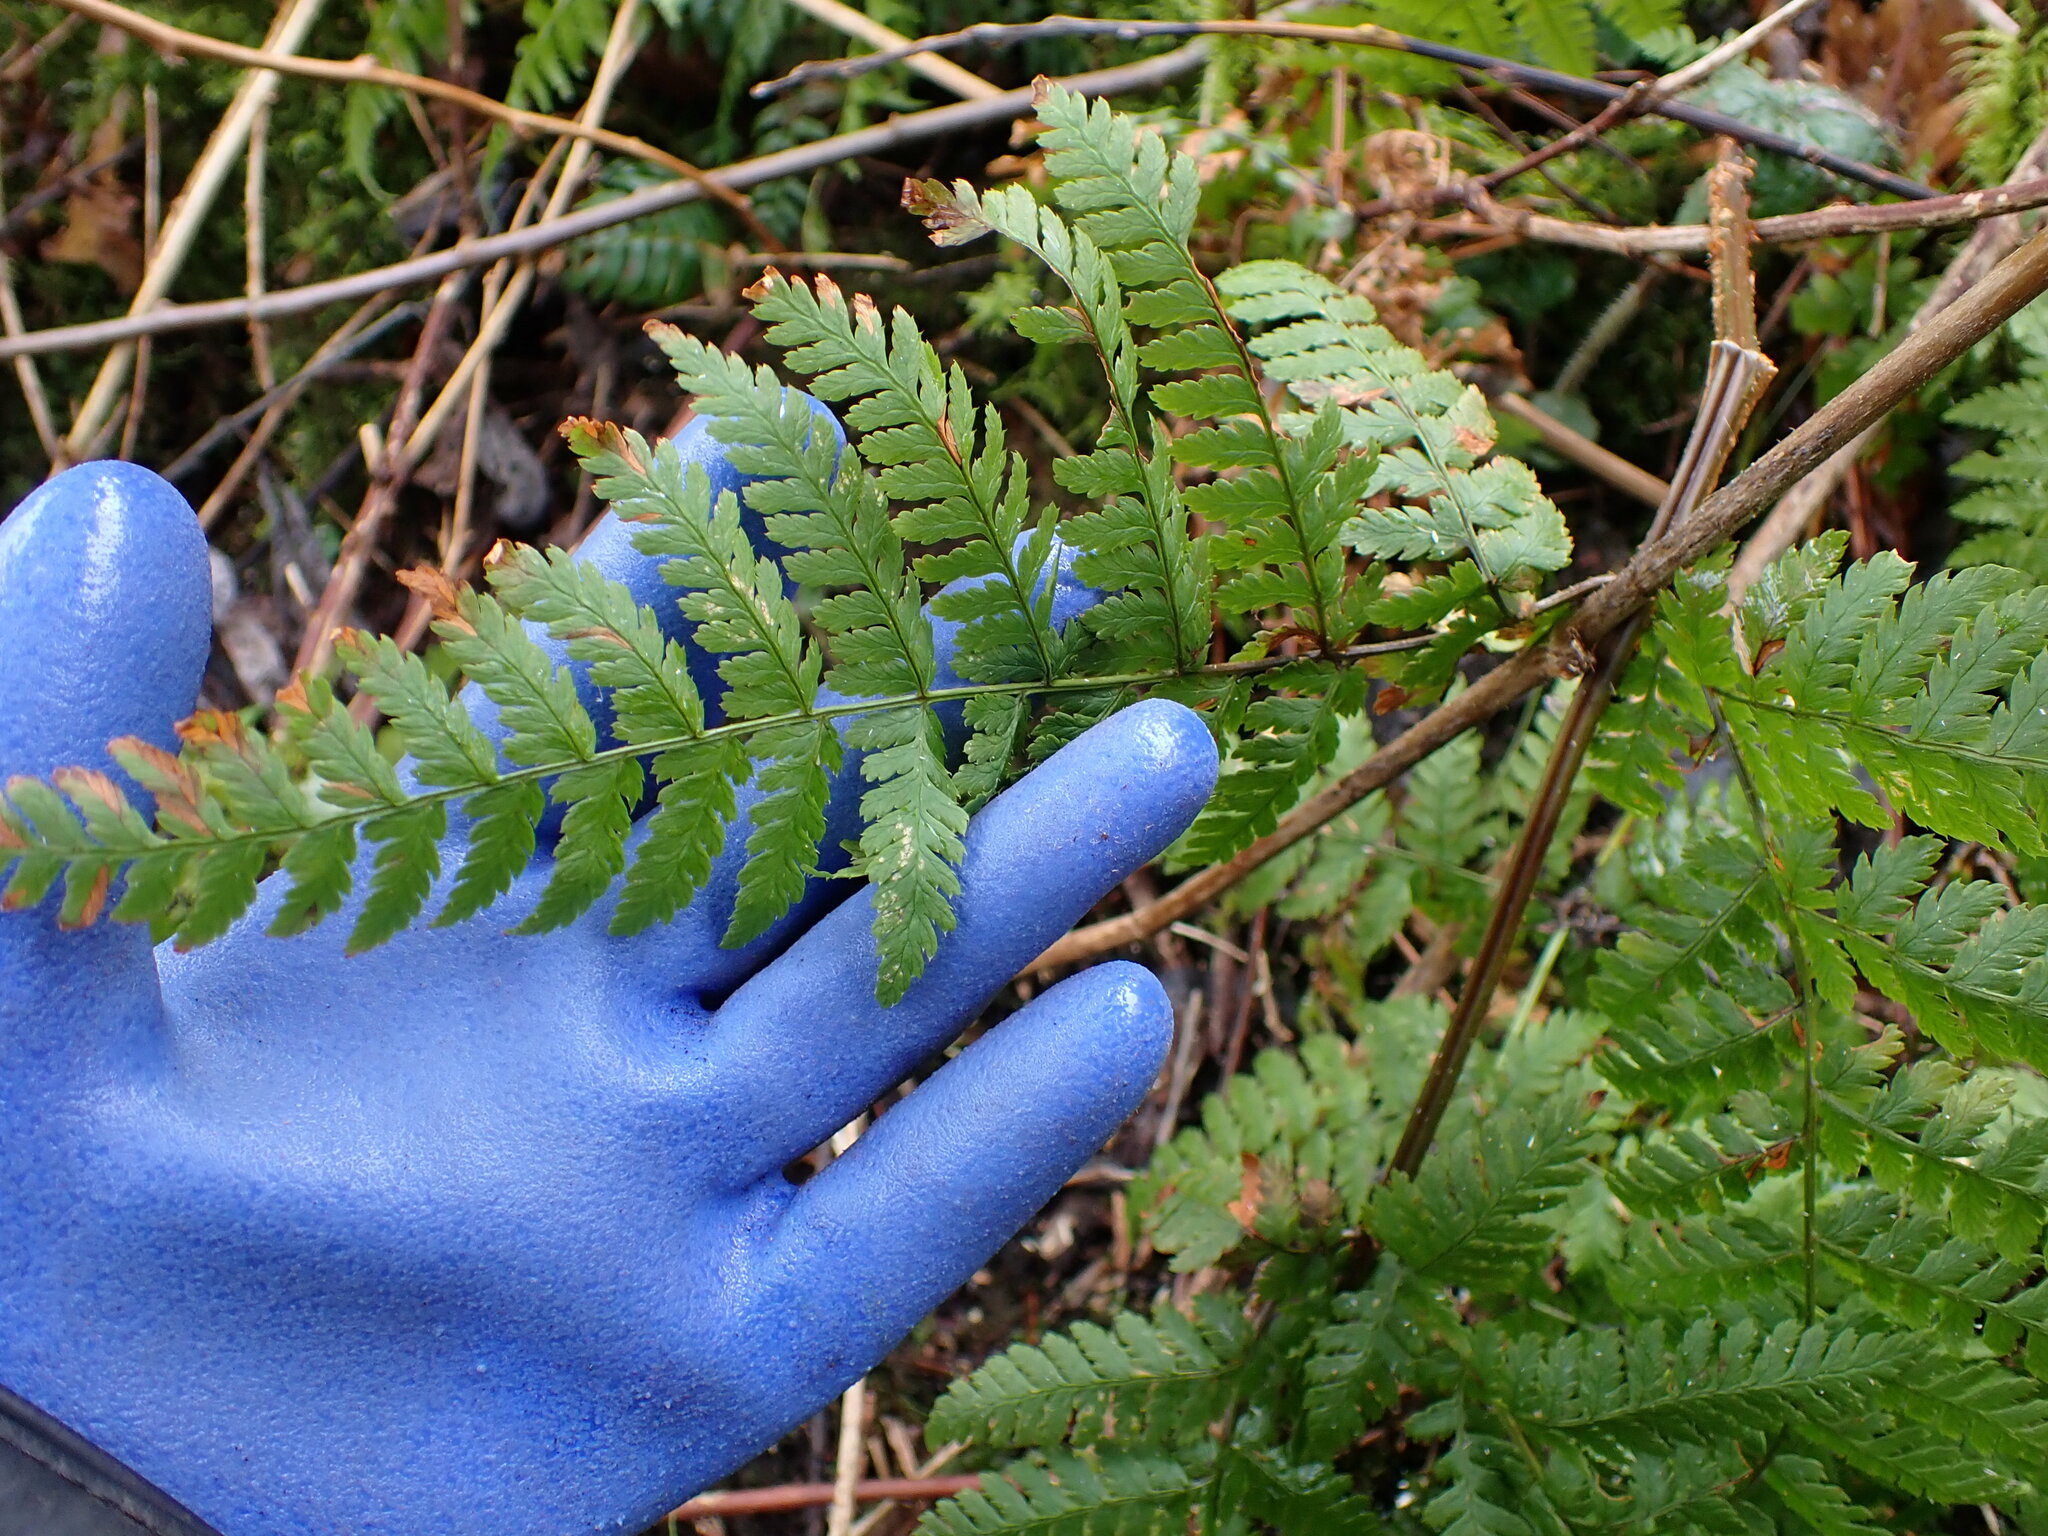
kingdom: Plantae
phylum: Tracheophyta
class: Polypodiopsida
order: Polypodiales
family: Dryopteridaceae
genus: Dryopteris
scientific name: Dryopteris expansa
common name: Northern buckler fern
